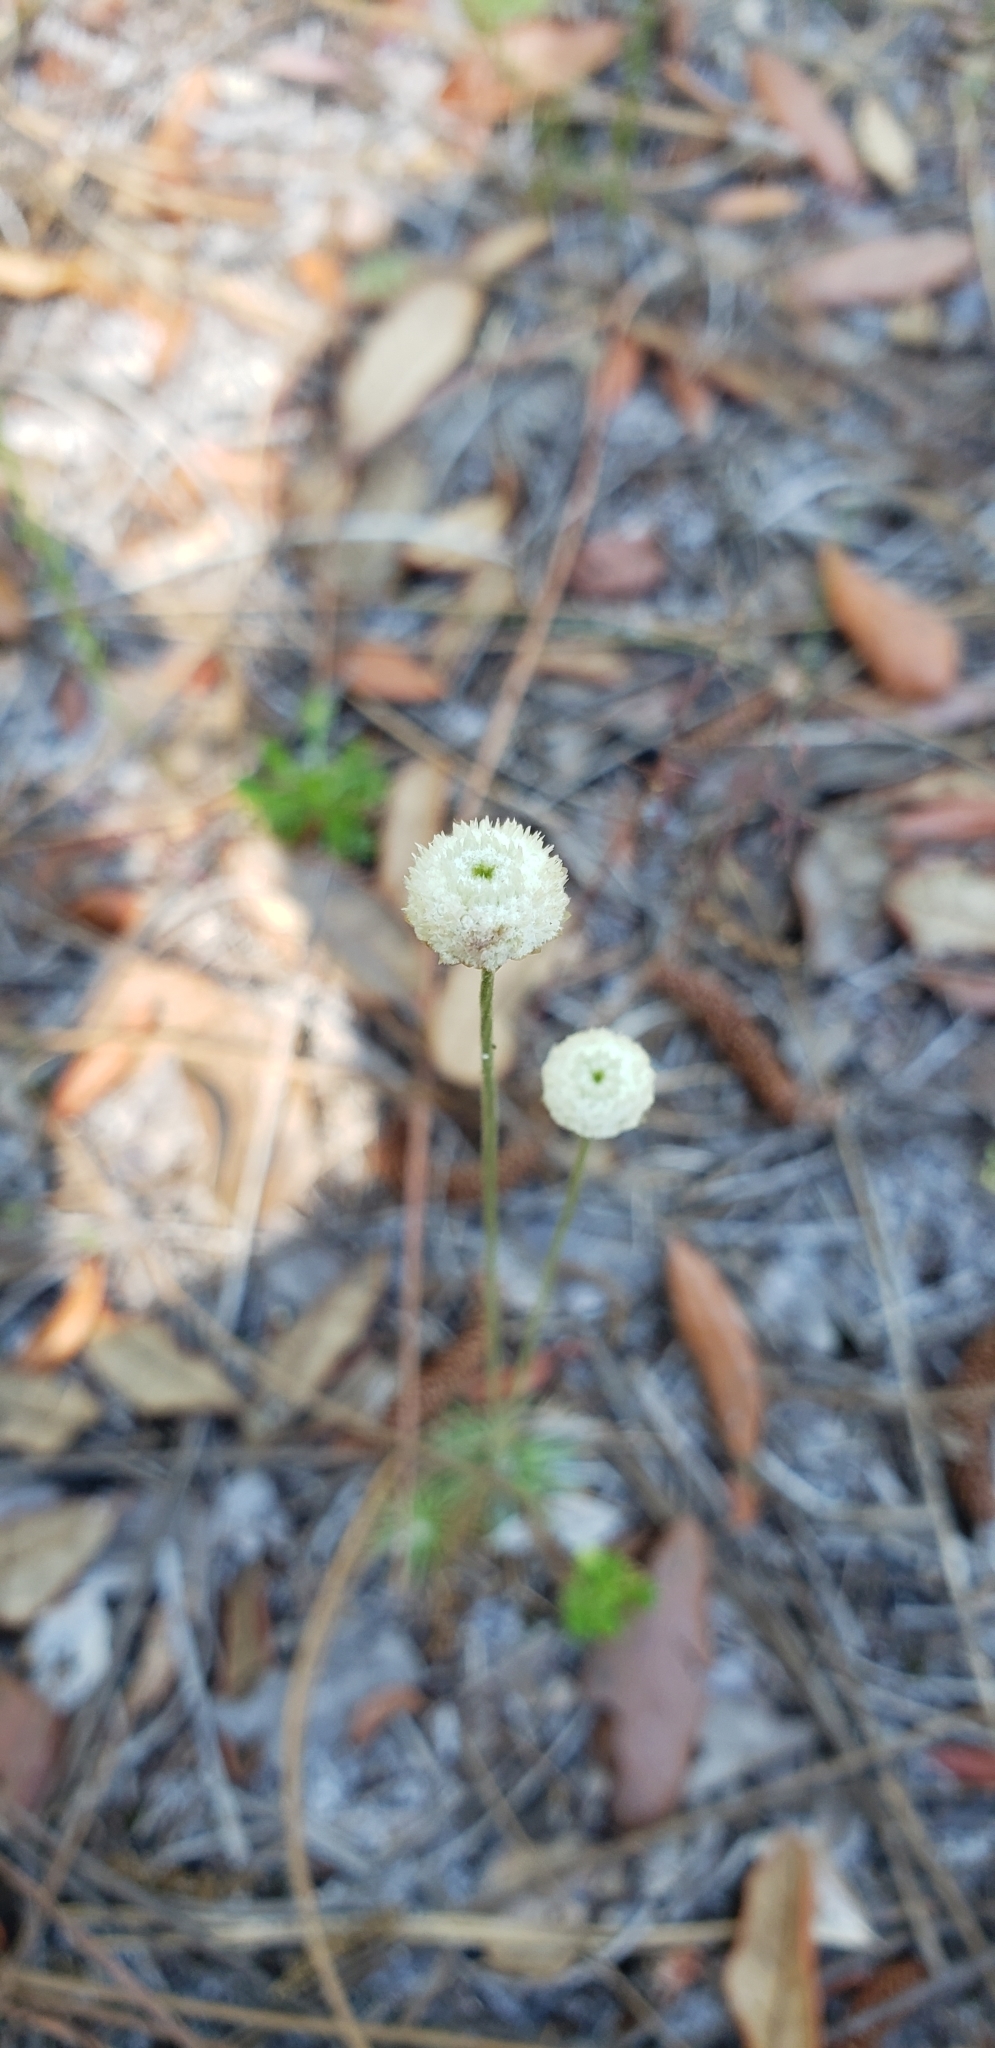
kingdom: Plantae
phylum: Tracheophyta
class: Liliopsida
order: Poales
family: Eriocaulaceae
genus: Syngonanthus
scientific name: Syngonanthus flavidulus
